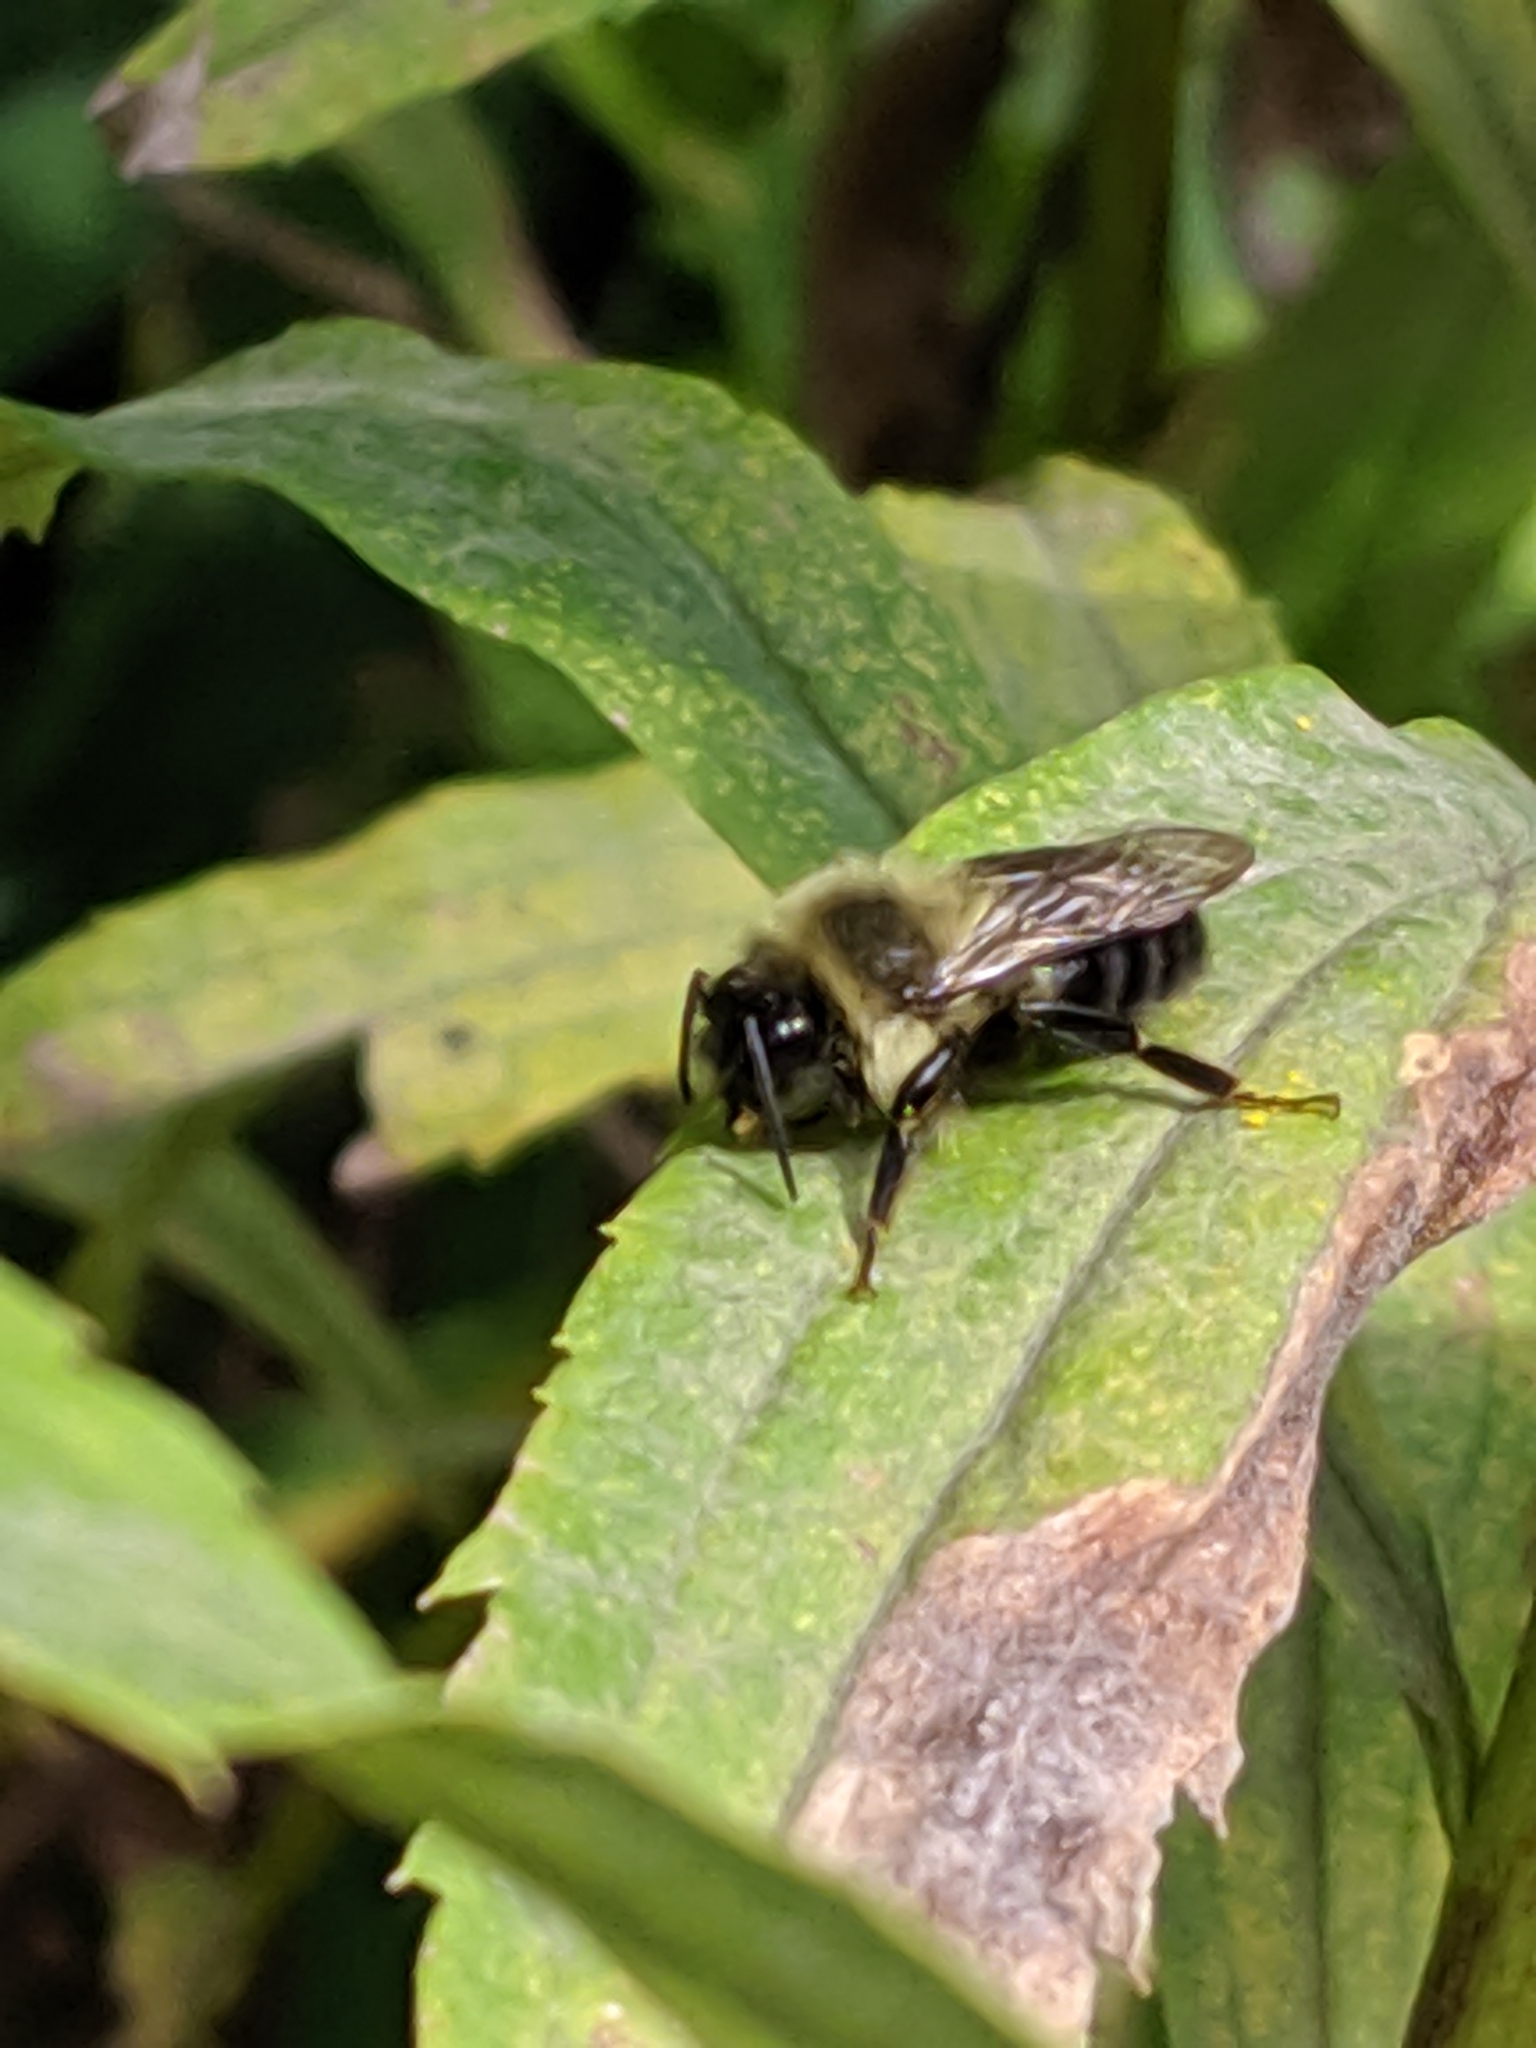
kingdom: Animalia
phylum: Arthropoda
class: Insecta
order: Hymenoptera
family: Apidae
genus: Bombus
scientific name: Bombus impatiens
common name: Common eastern bumble bee
